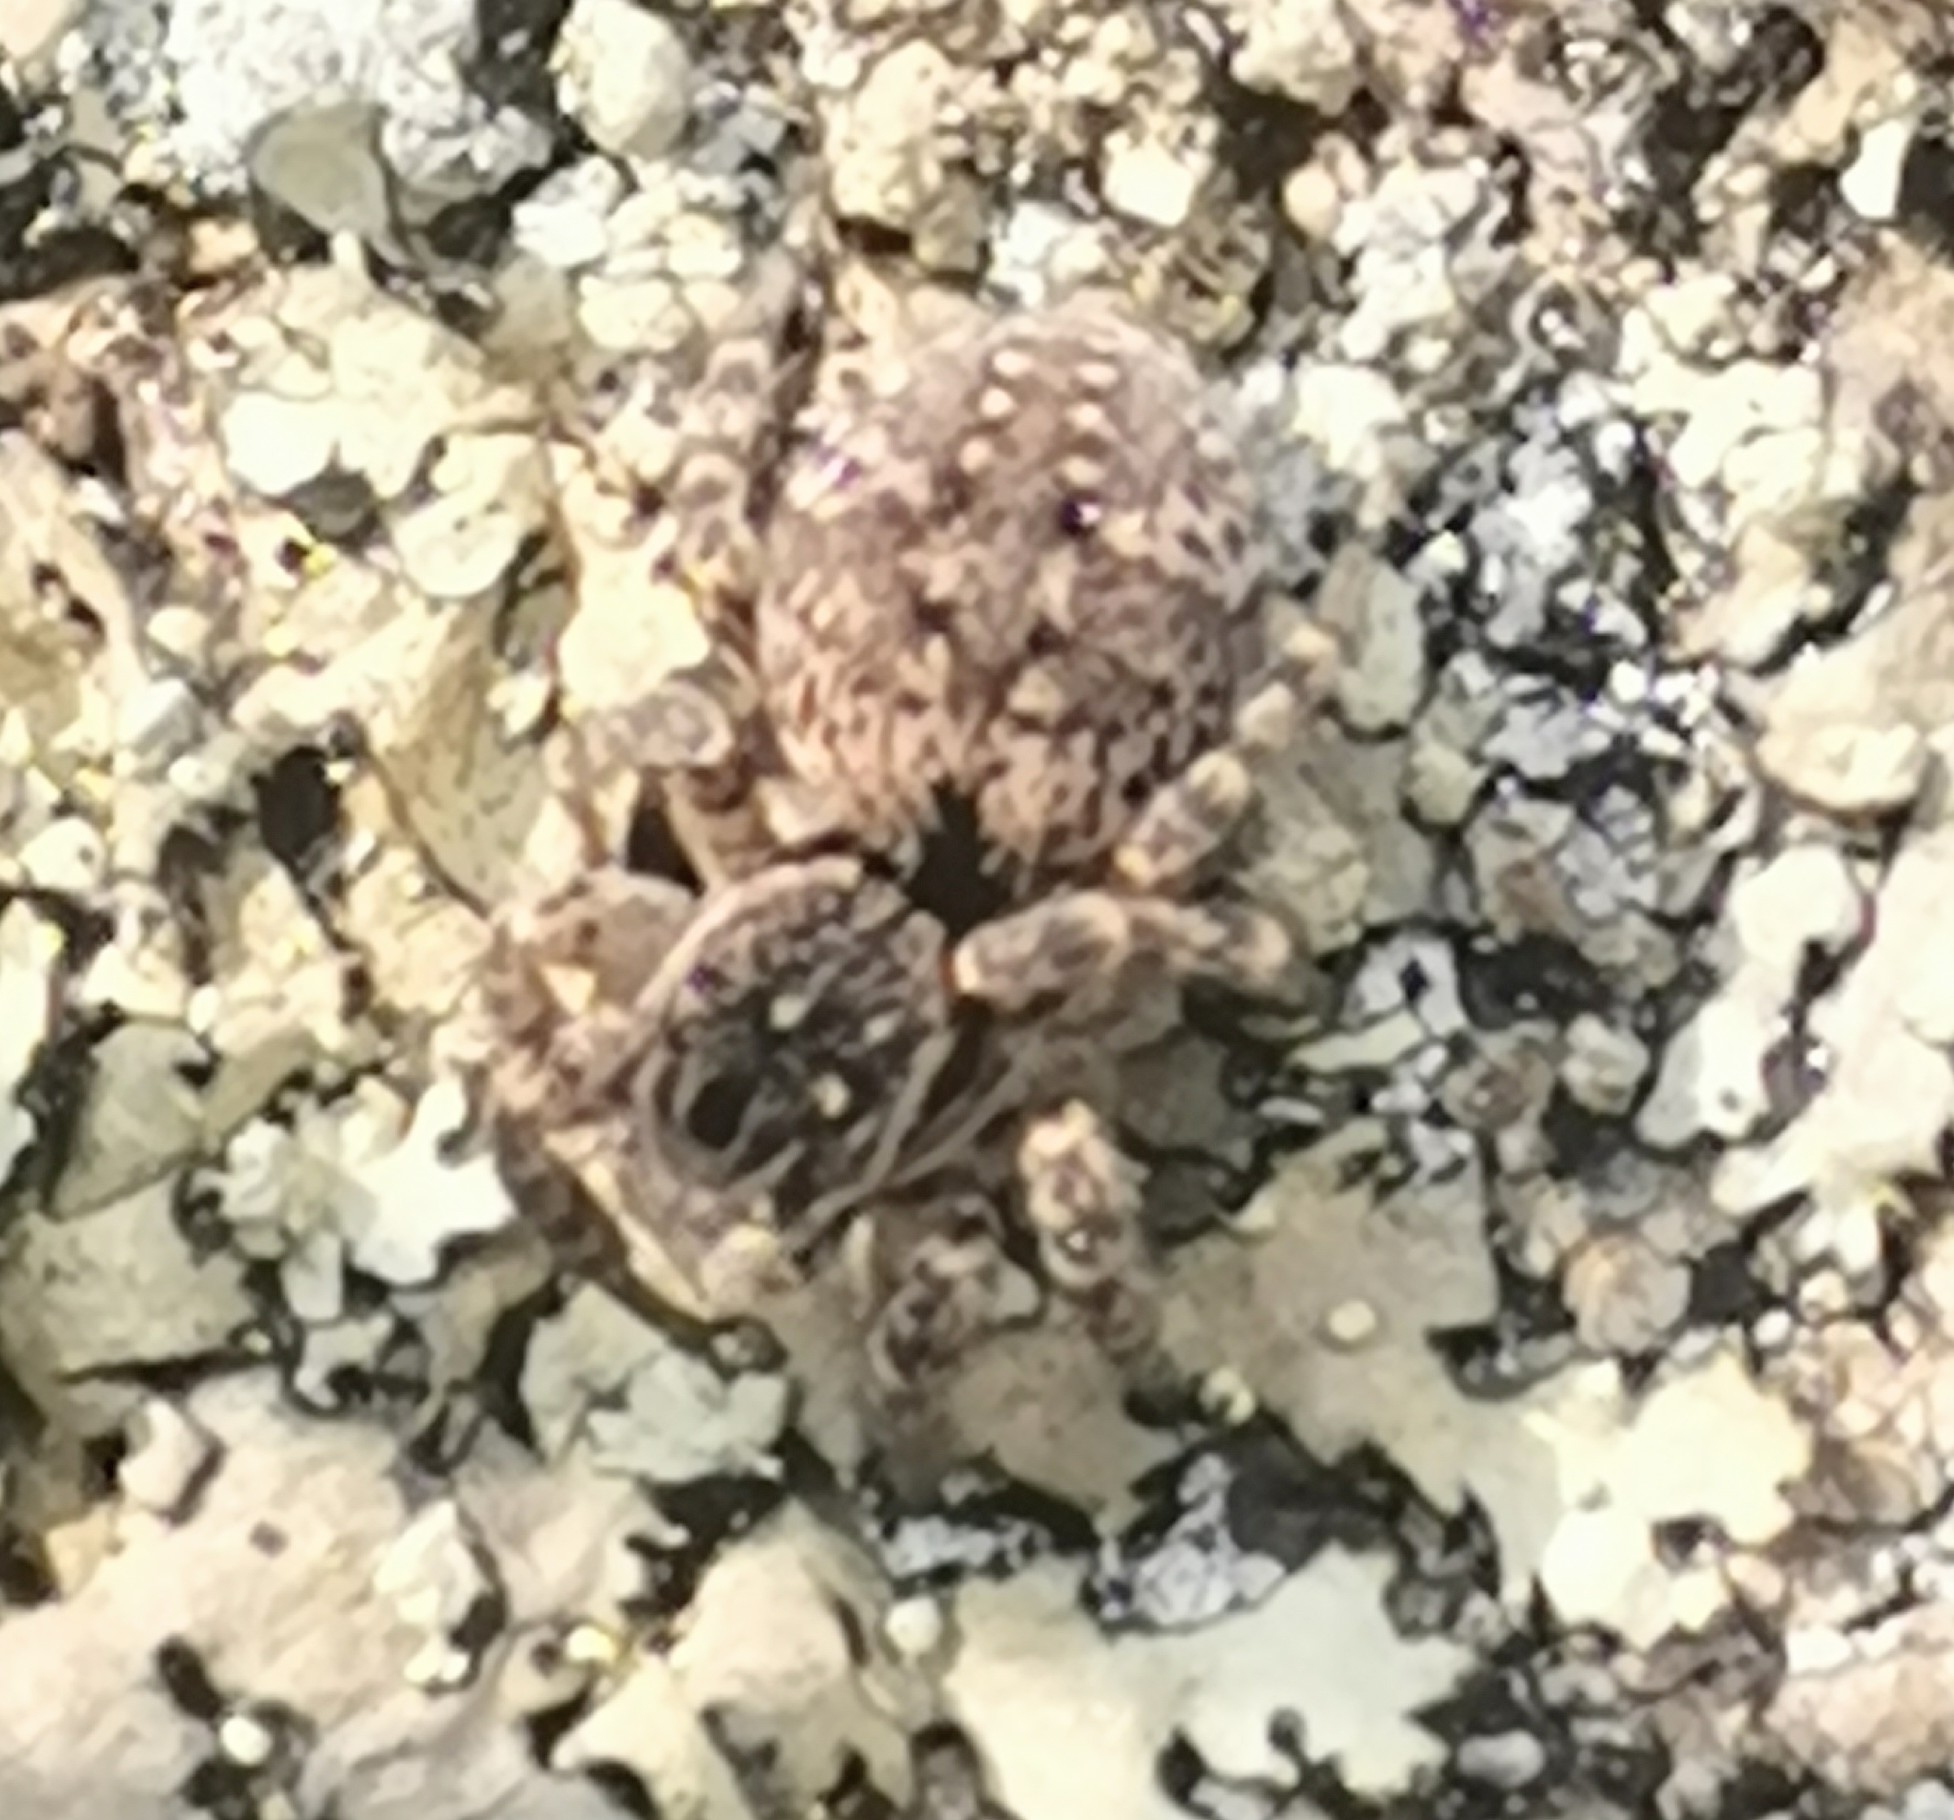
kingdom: Animalia
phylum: Arthropoda
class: Arachnida
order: Araneae
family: Salticidae
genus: Aelurillus
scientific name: Aelurillus v-insignitus
